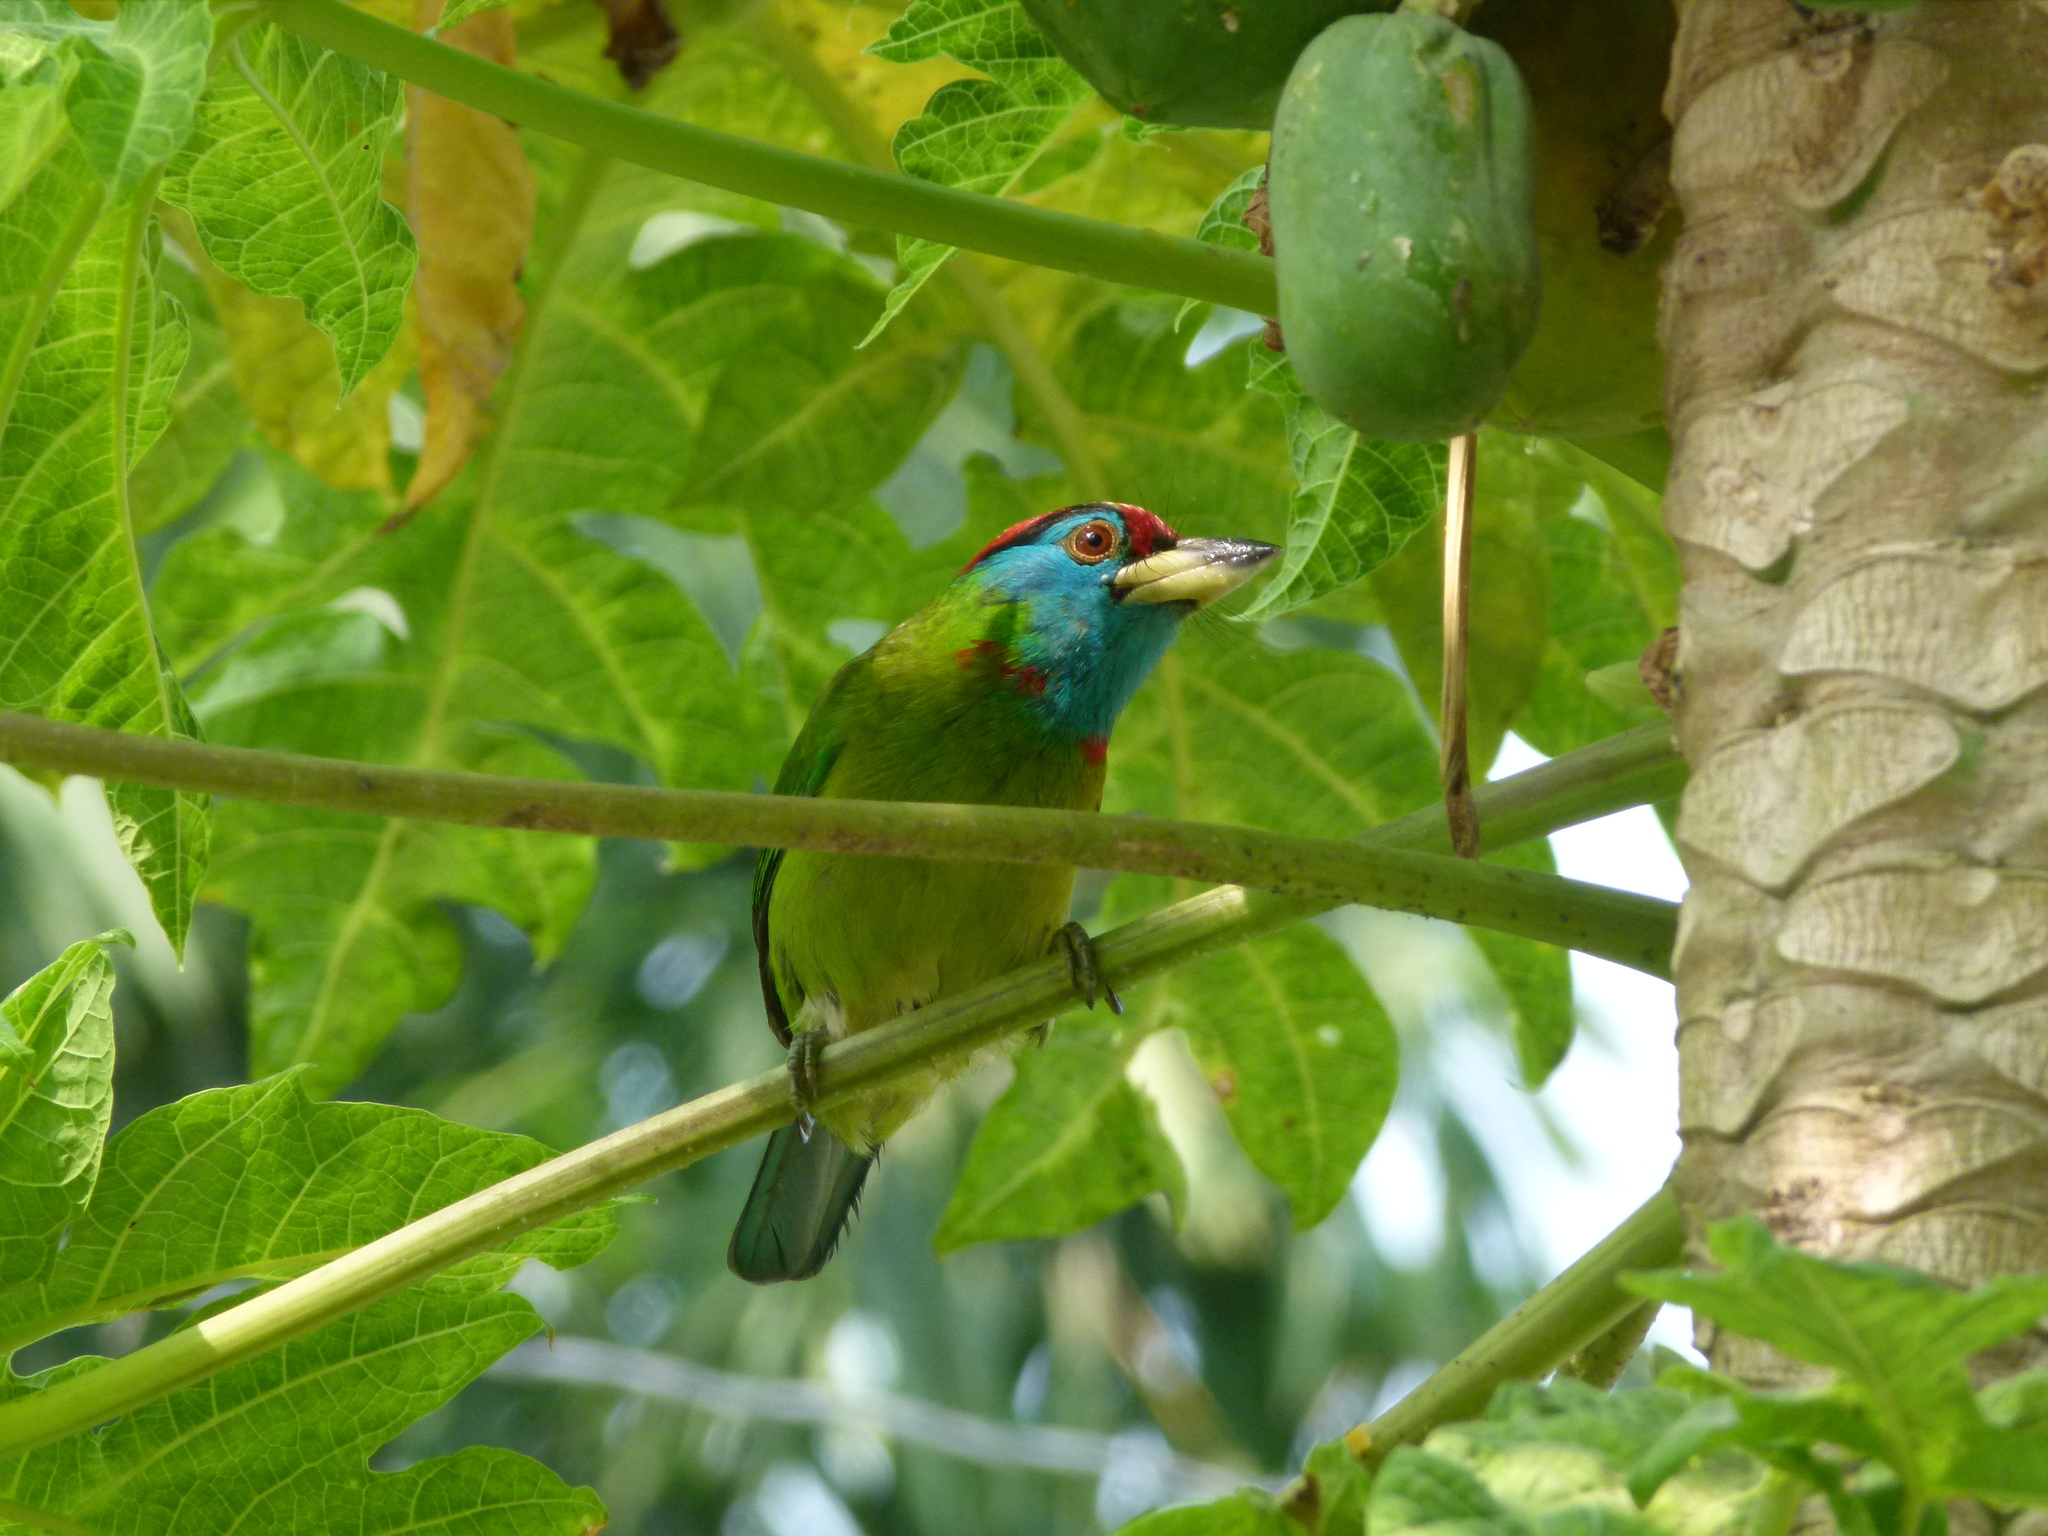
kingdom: Animalia
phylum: Chordata
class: Aves
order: Piciformes
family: Megalaimidae
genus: Psilopogon
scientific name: Psilopogon asiaticus
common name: Blue-throated barbet
